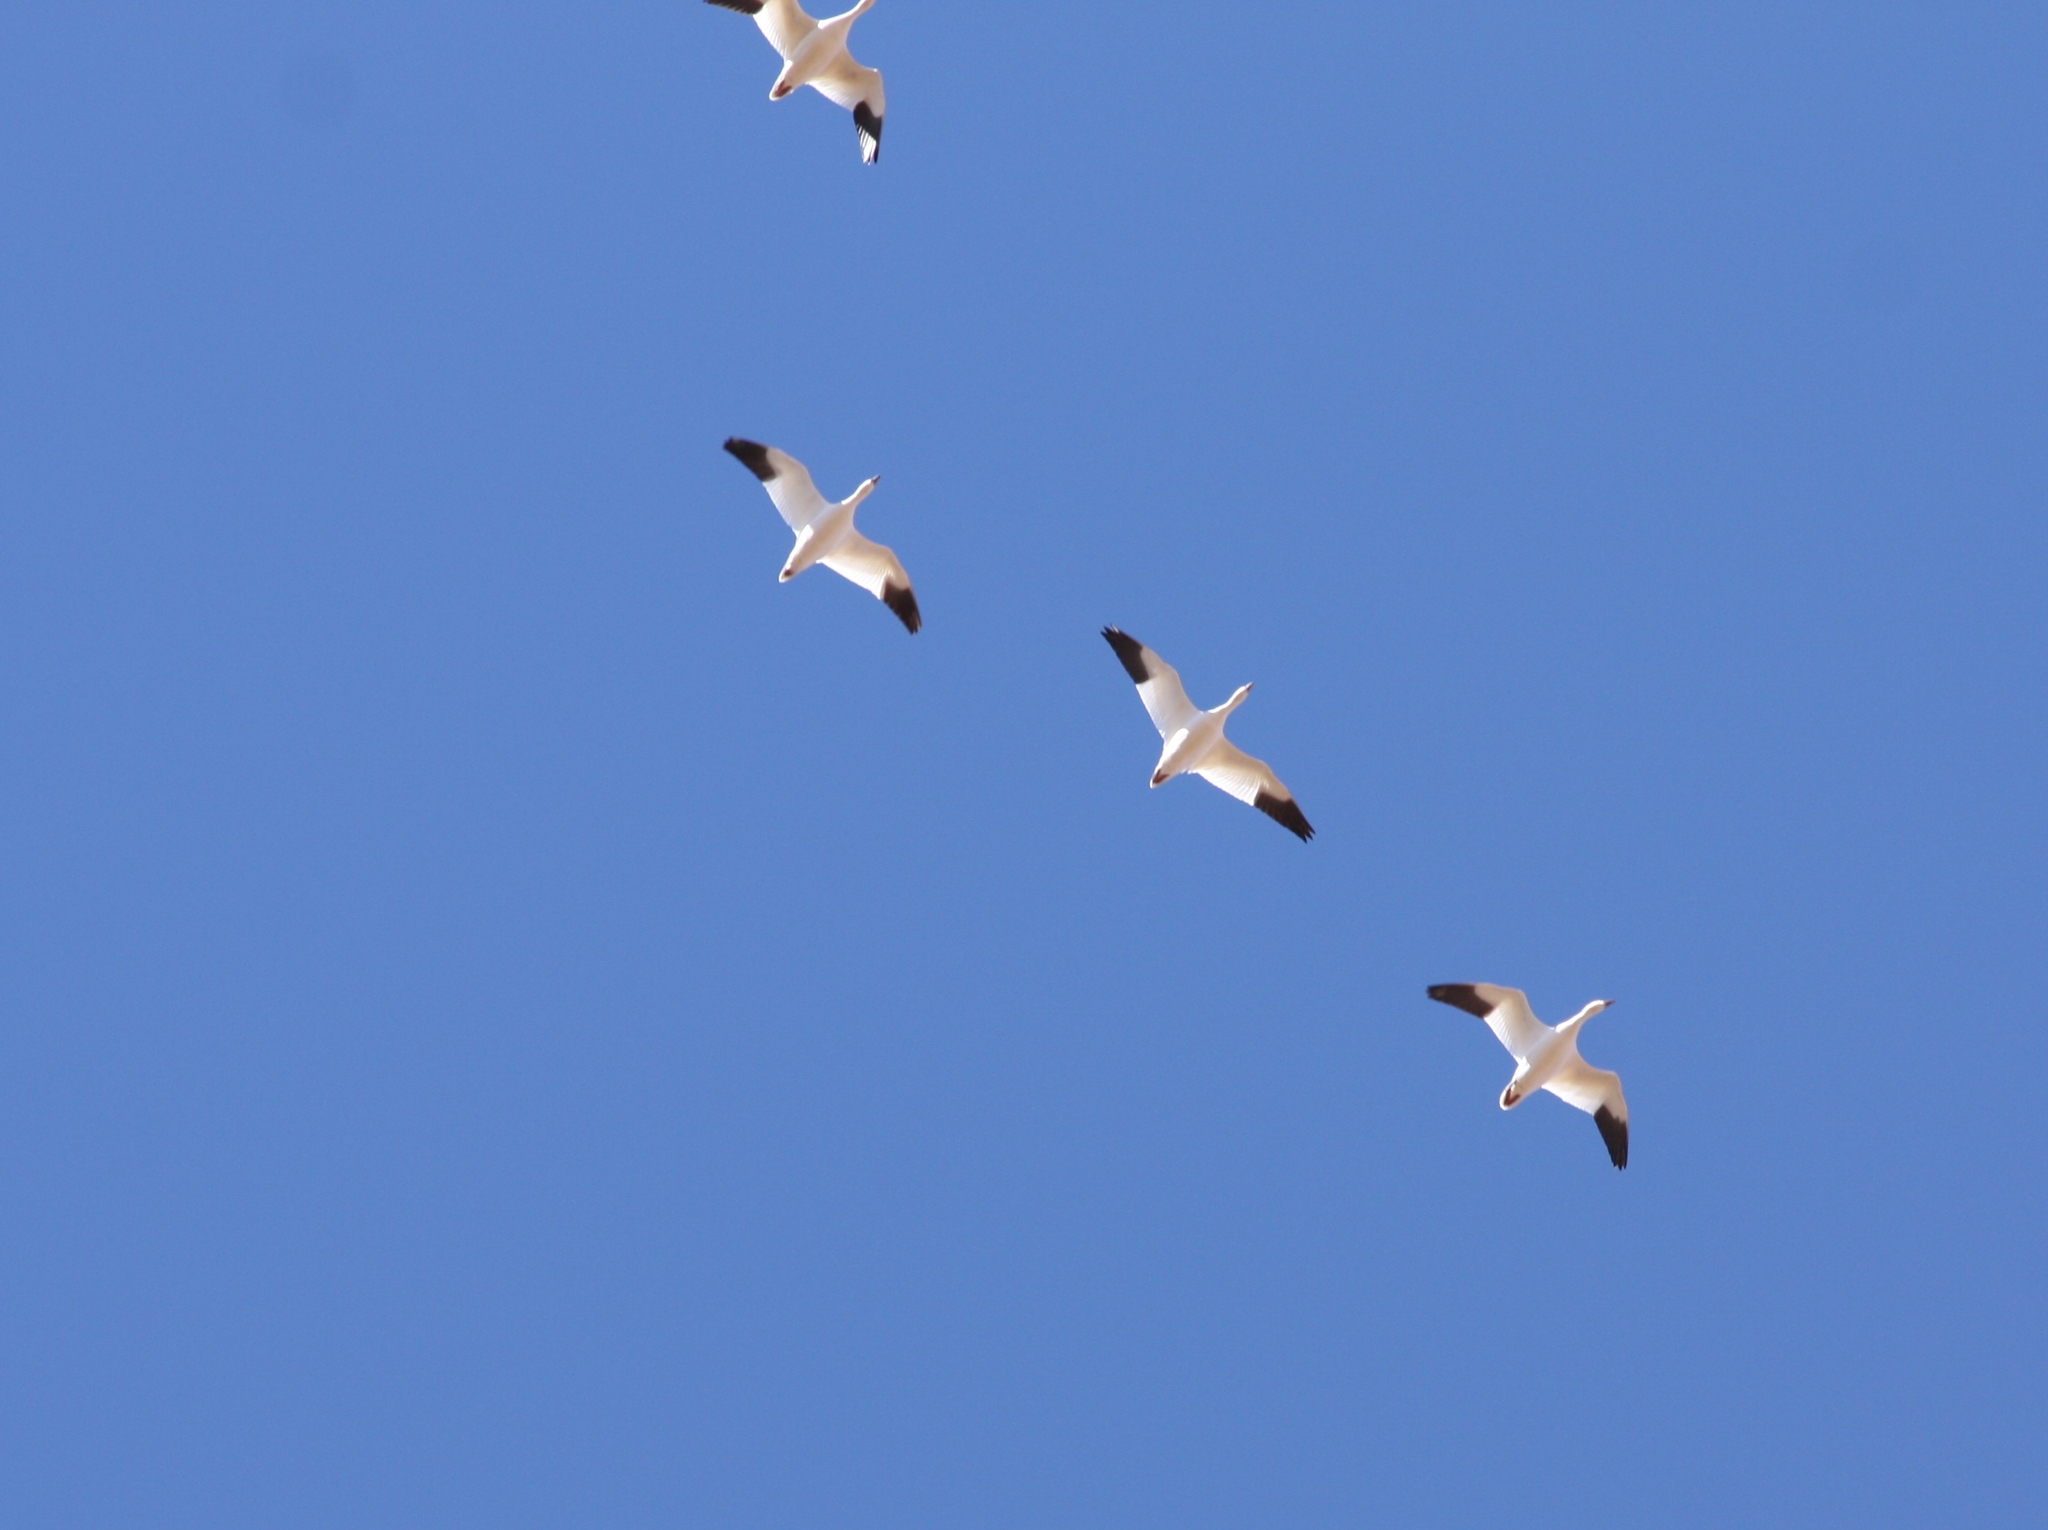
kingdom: Animalia
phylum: Chordata
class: Aves
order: Anseriformes
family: Anatidae
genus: Anser
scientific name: Anser caerulescens
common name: Snow goose
